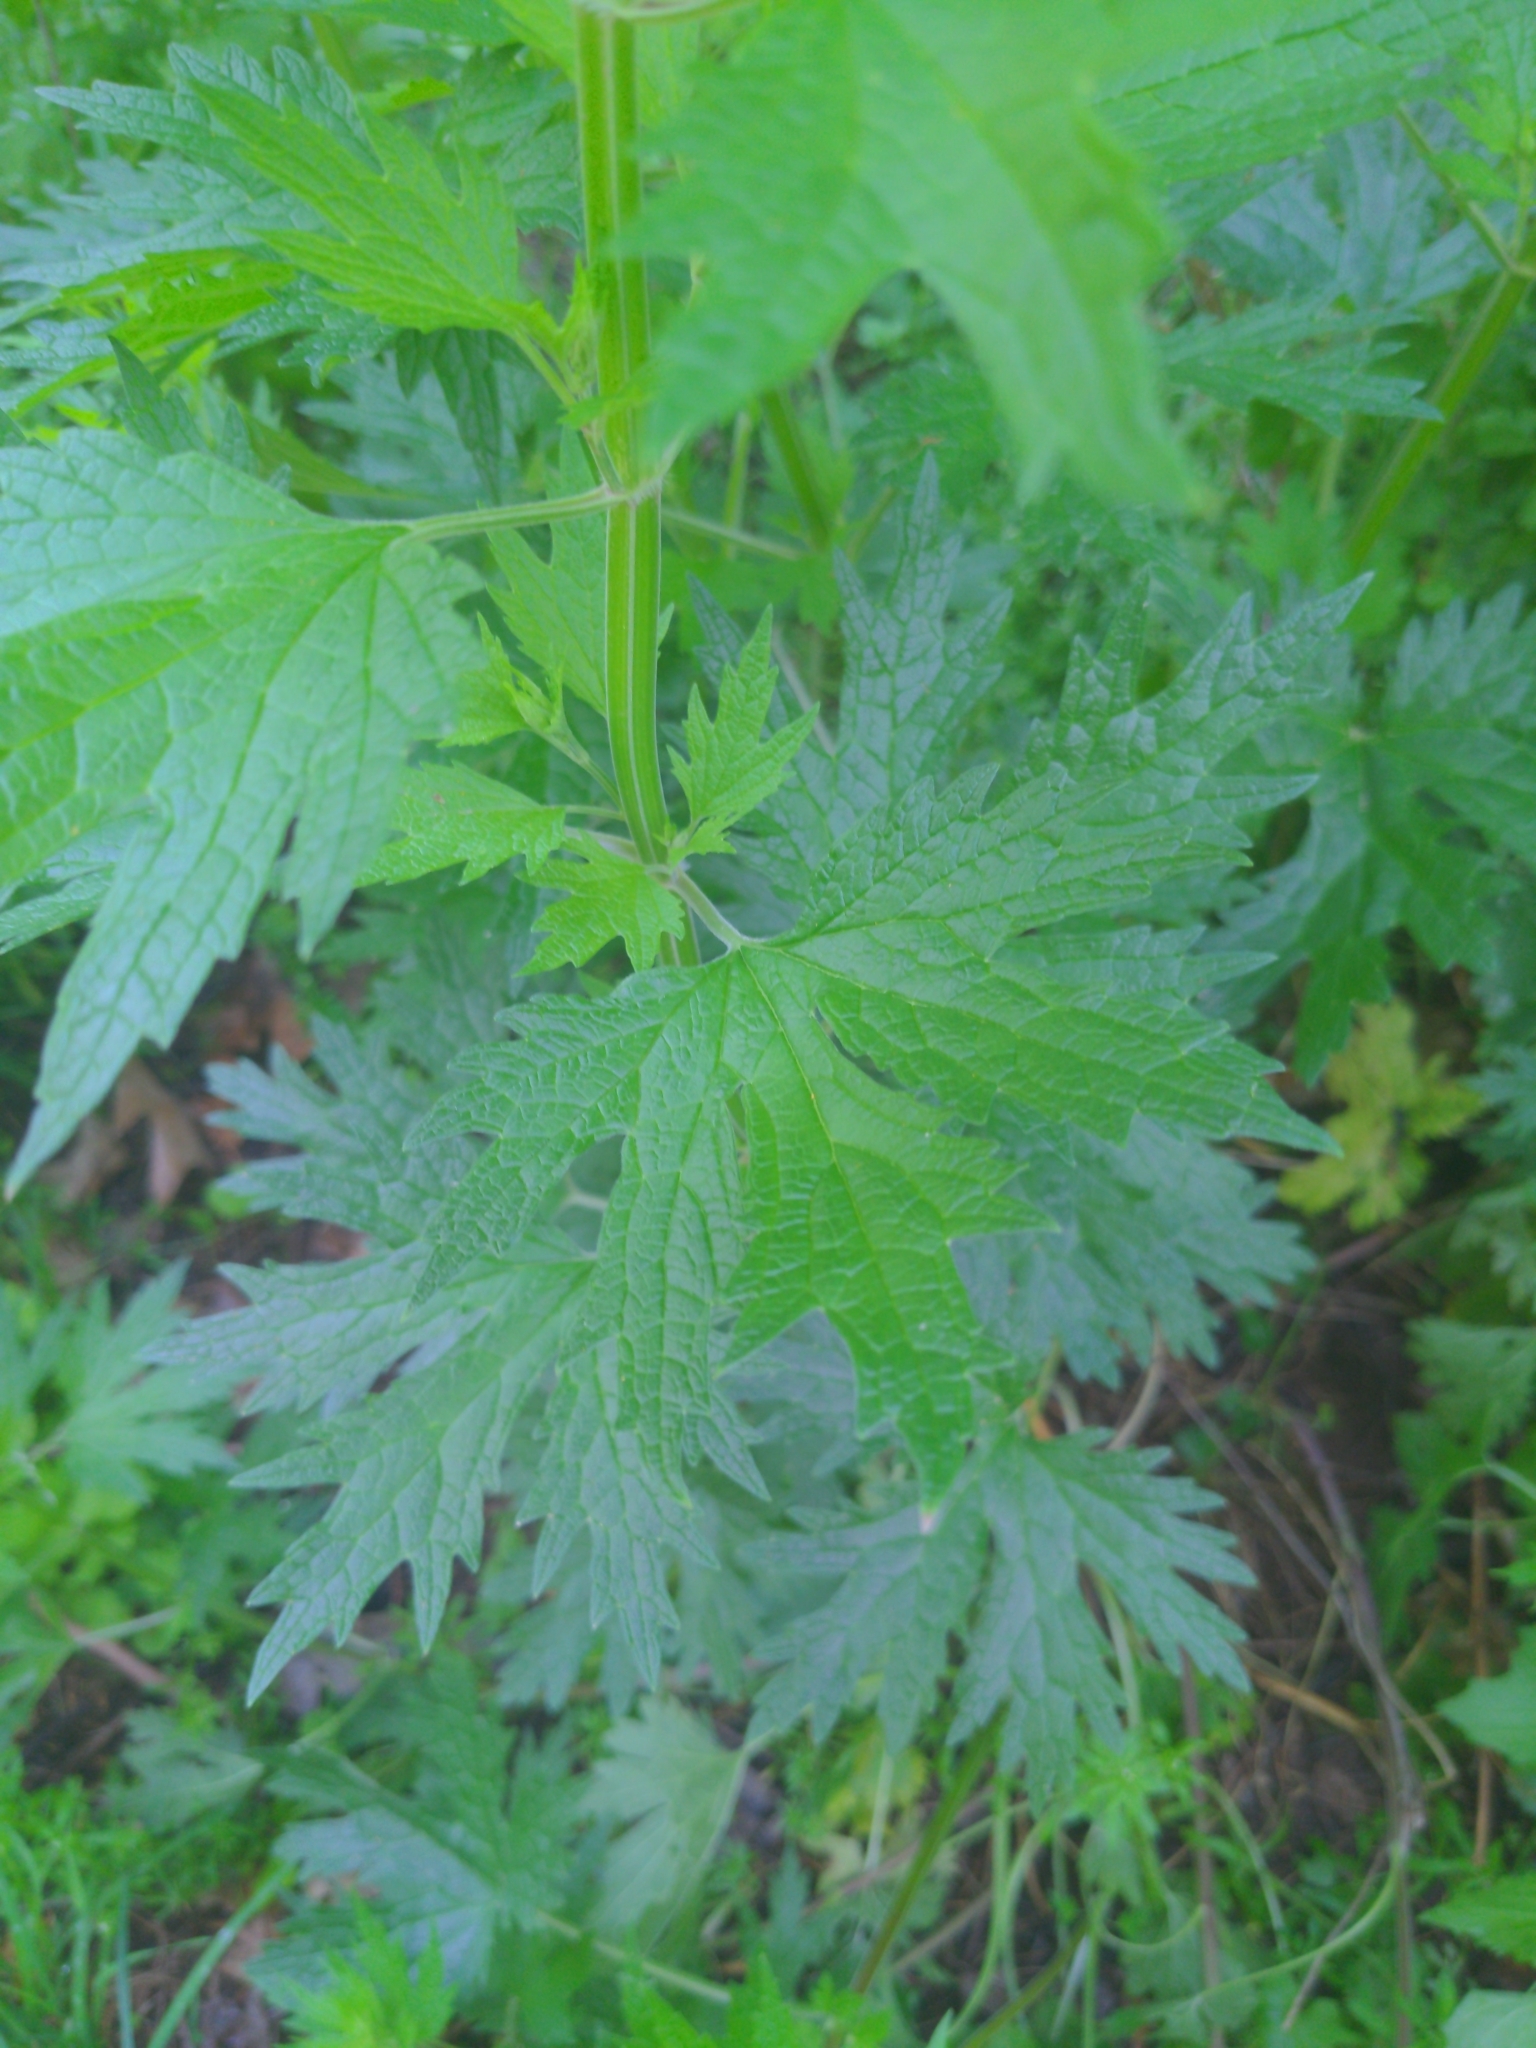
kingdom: Plantae
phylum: Tracheophyta
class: Magnoliopsida
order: Lamiales
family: Lamiaceae
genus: Leonurus
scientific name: Leonurus cardiaca
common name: Motherwort
